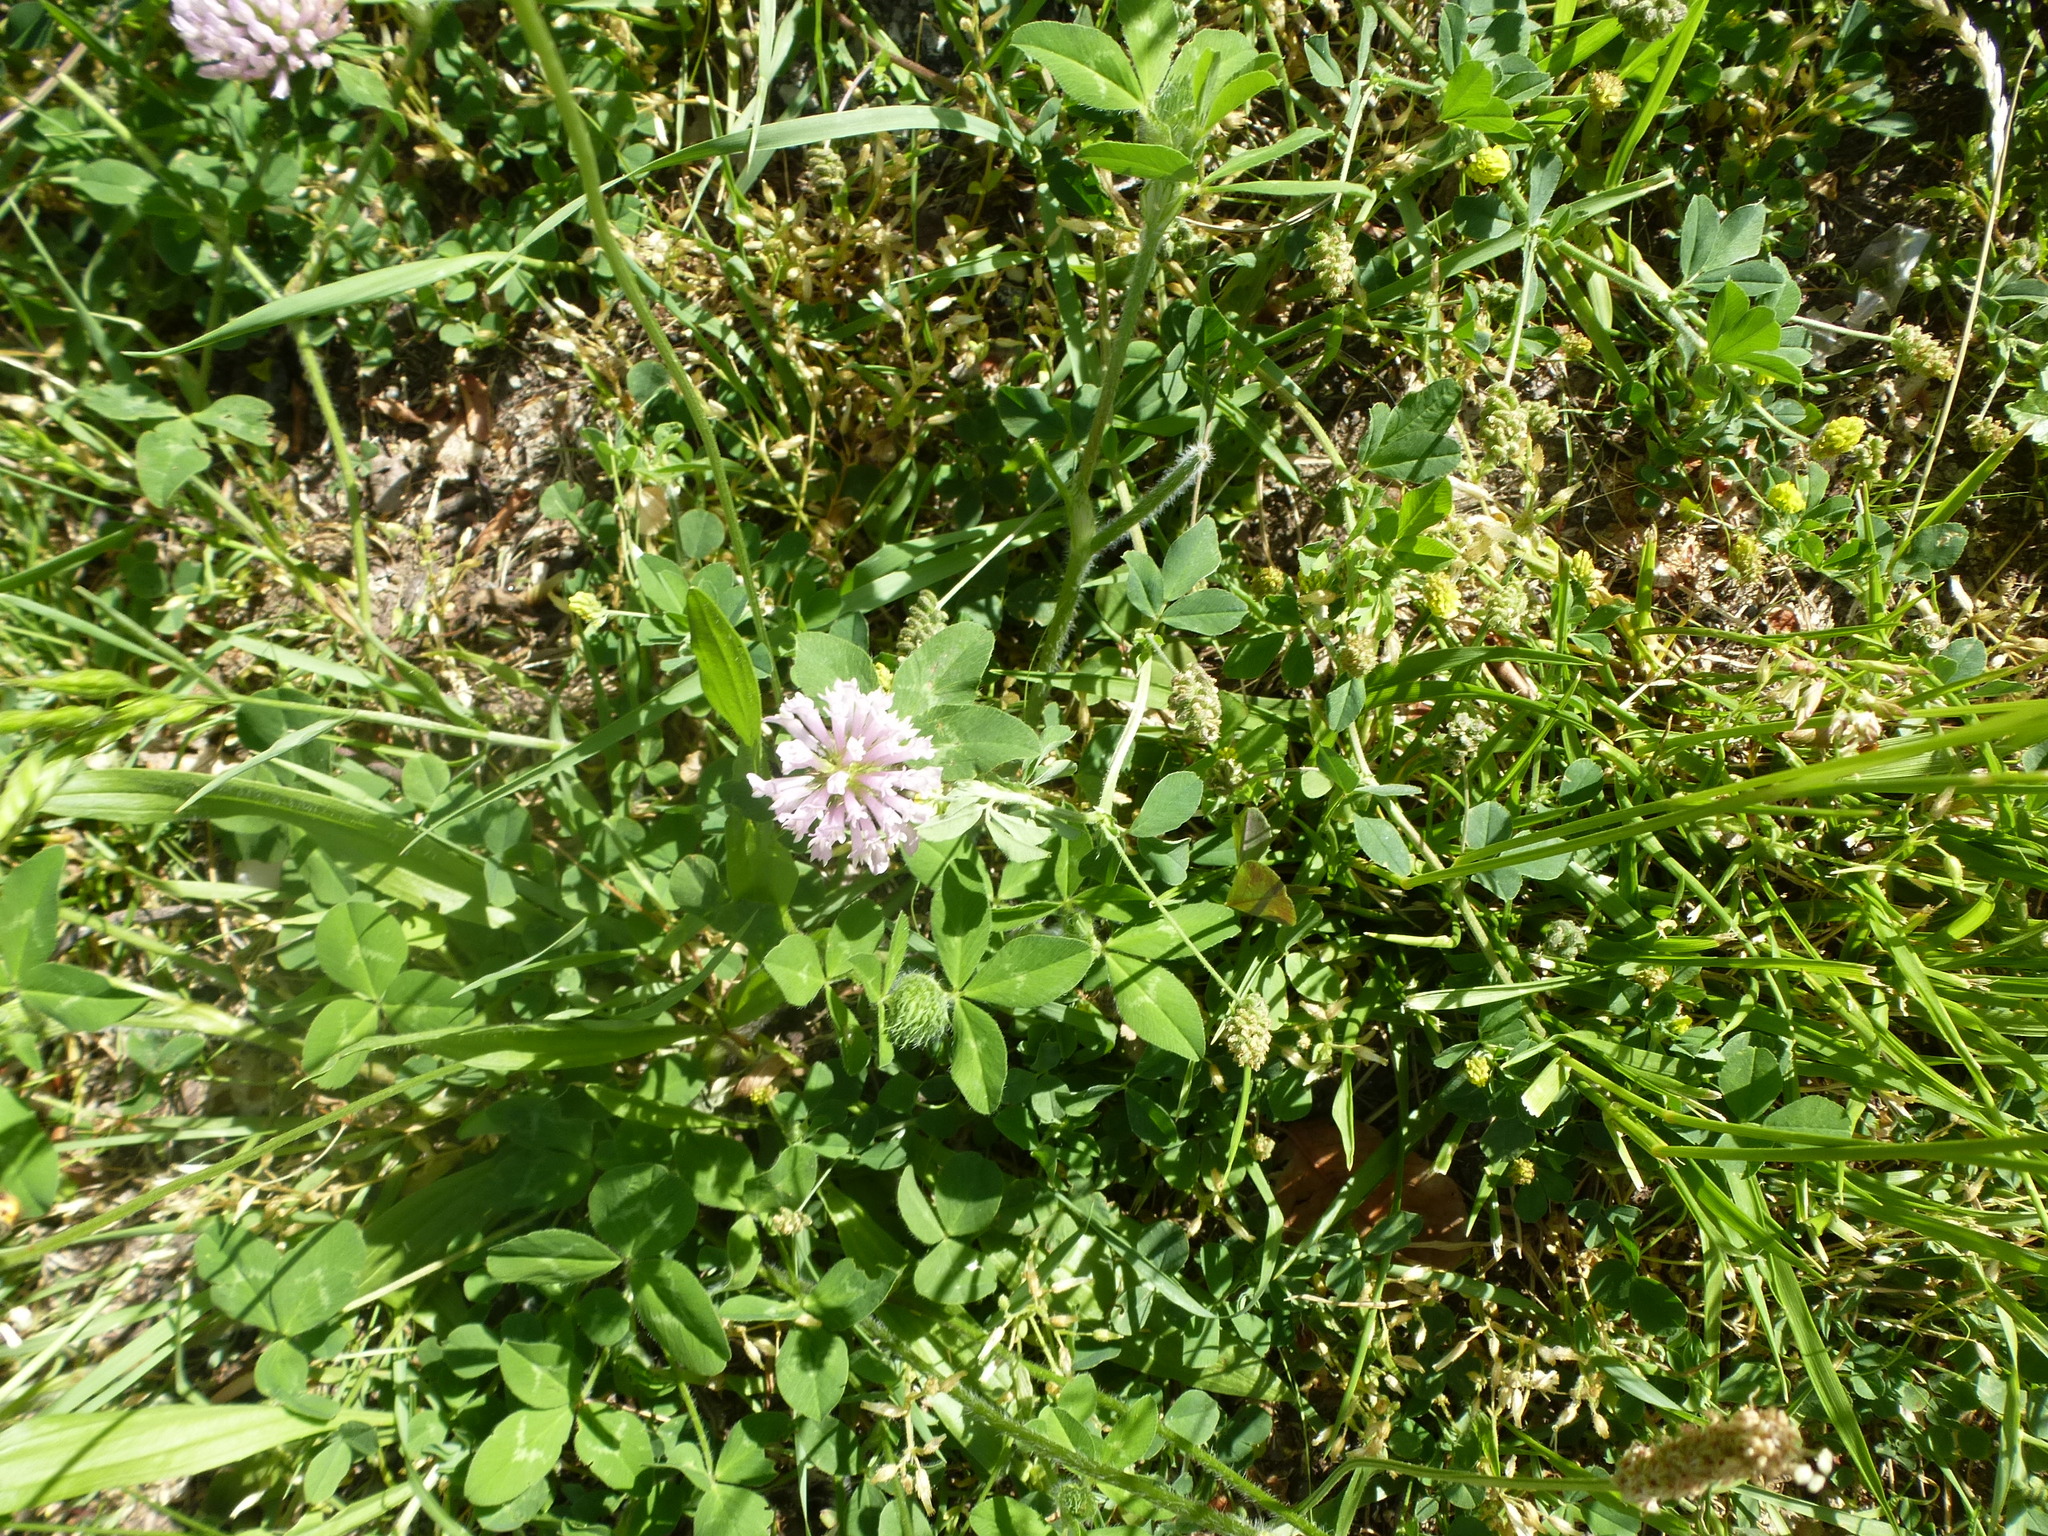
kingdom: Plantae
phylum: Tracheophyta
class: Magnoliopsida
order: Fabales
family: Fabaceae
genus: Trifolium
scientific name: Trifolium pratense
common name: Red clover
